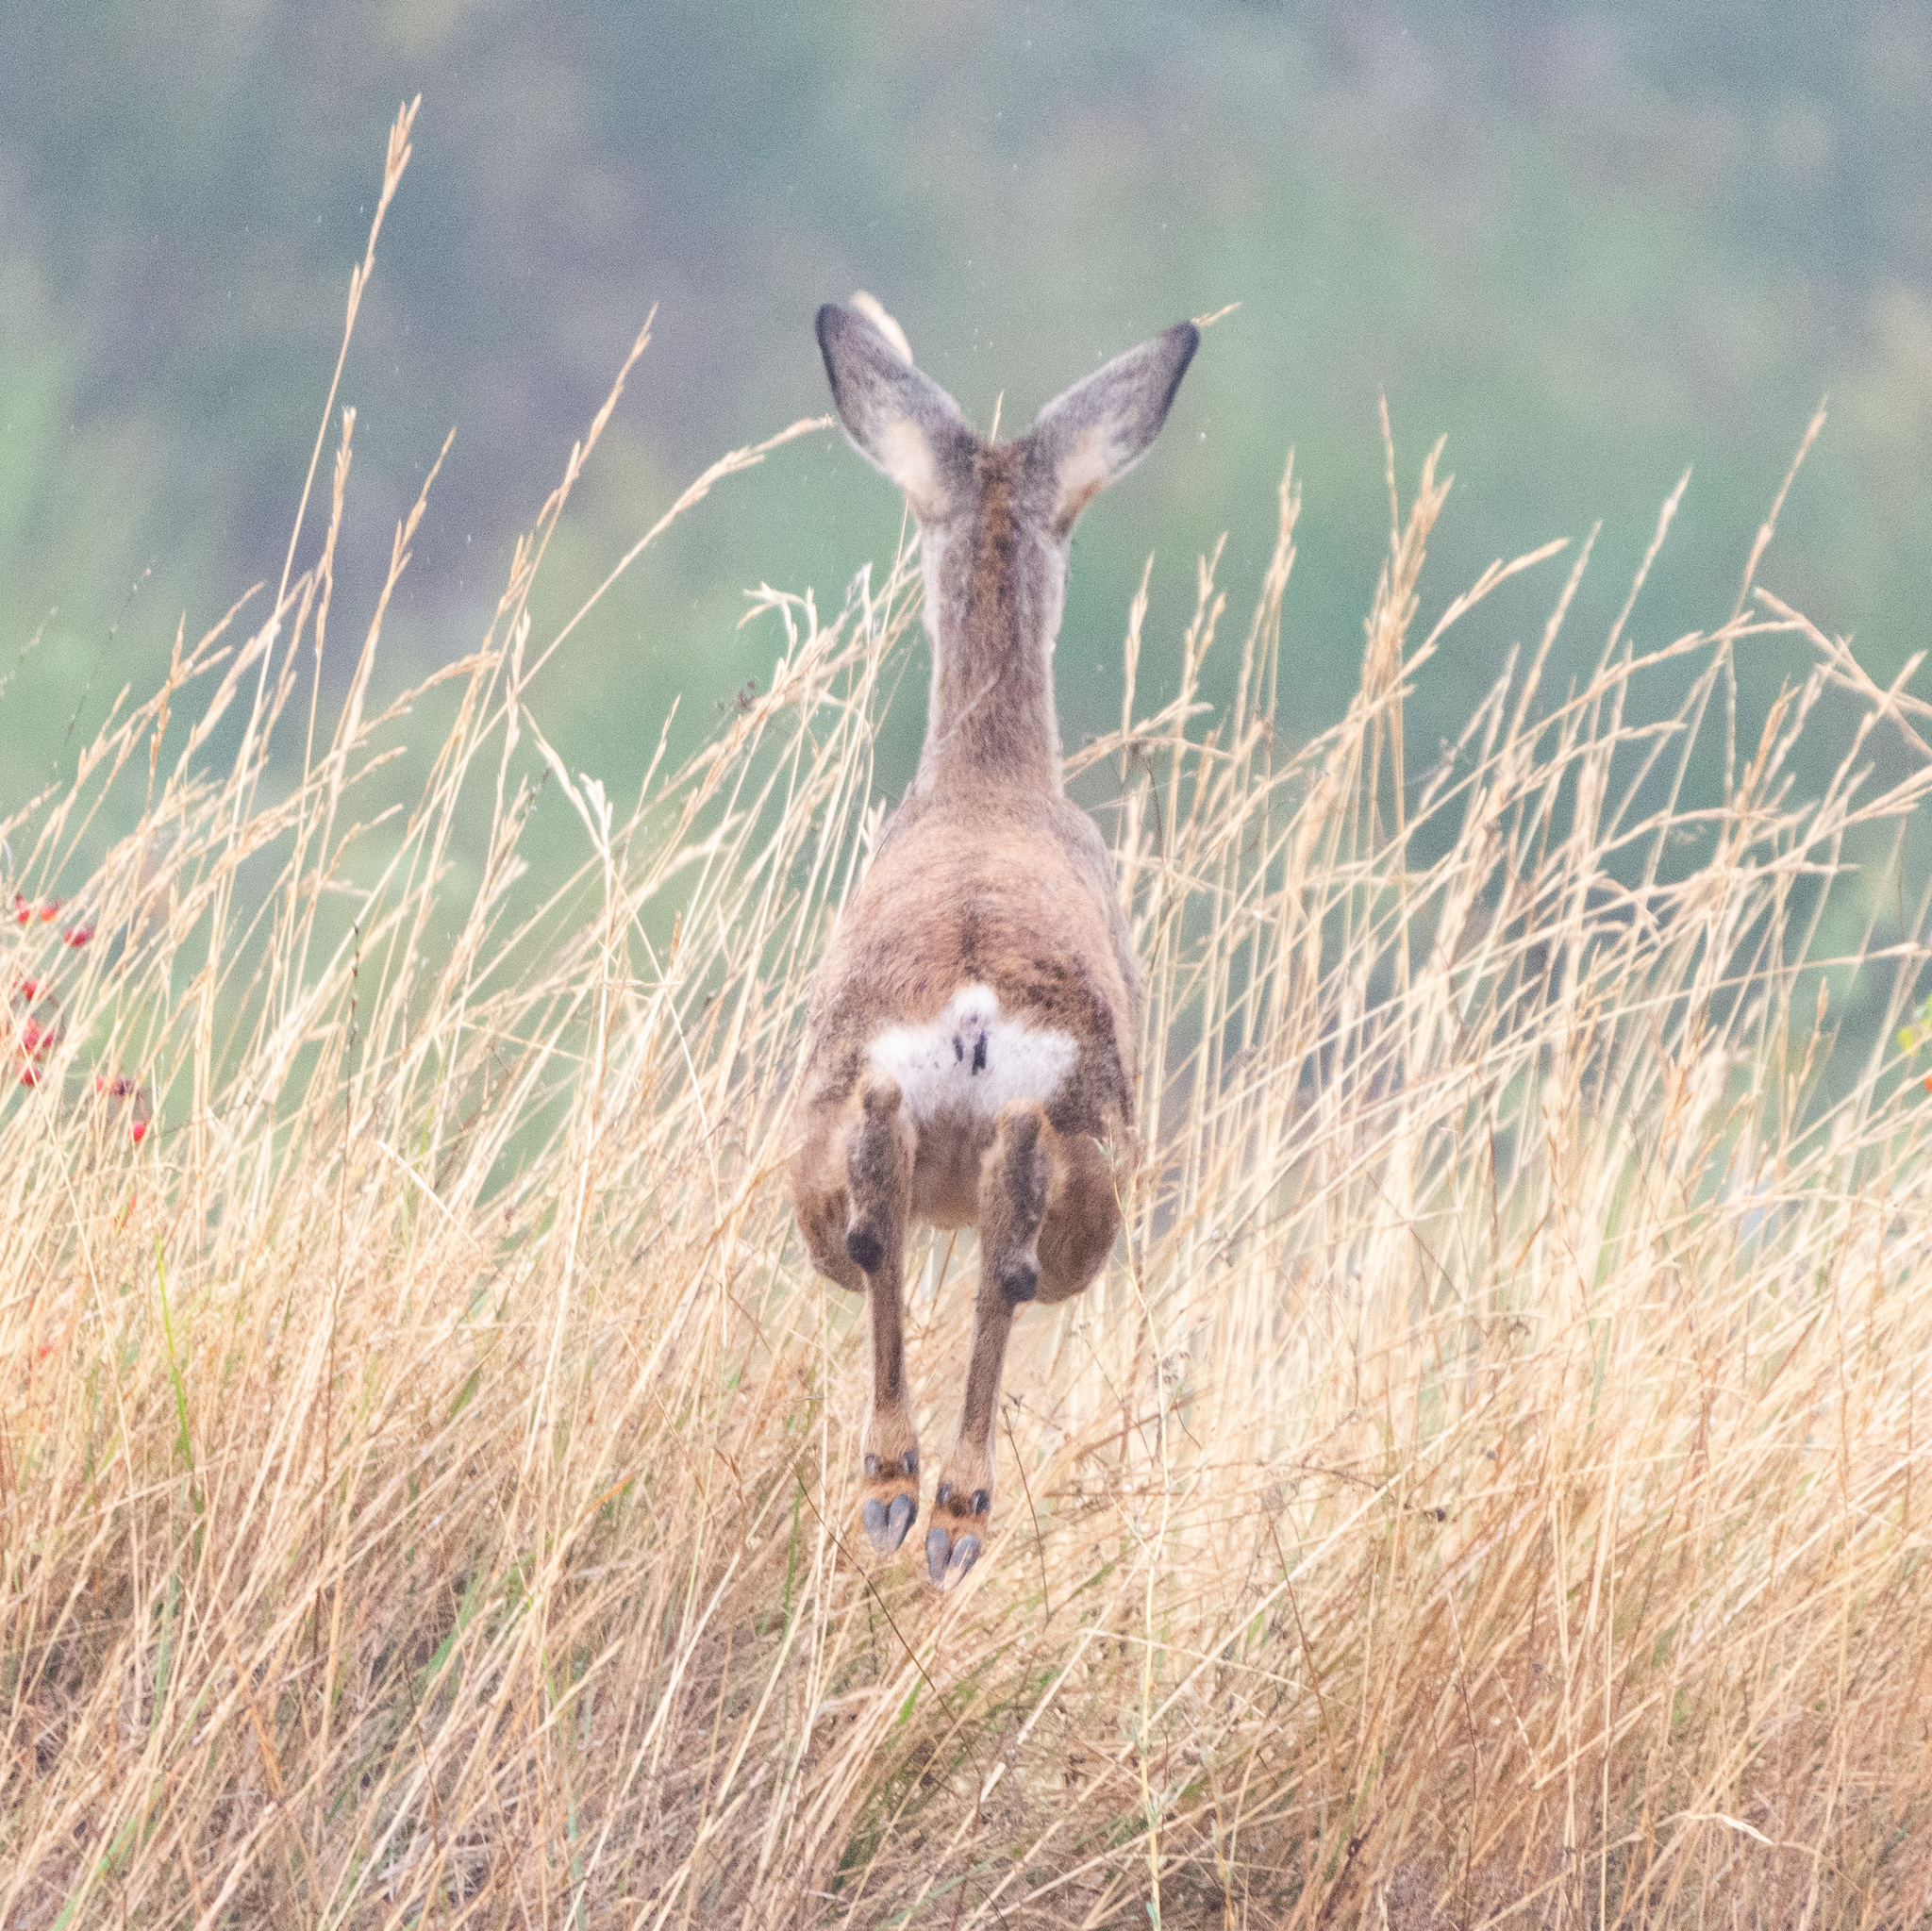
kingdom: Animalia
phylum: Chordata
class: Mammalia
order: Artiodactyla
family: Cervidae
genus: Capreolus
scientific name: Capreolus capreolus
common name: Western roe deer
